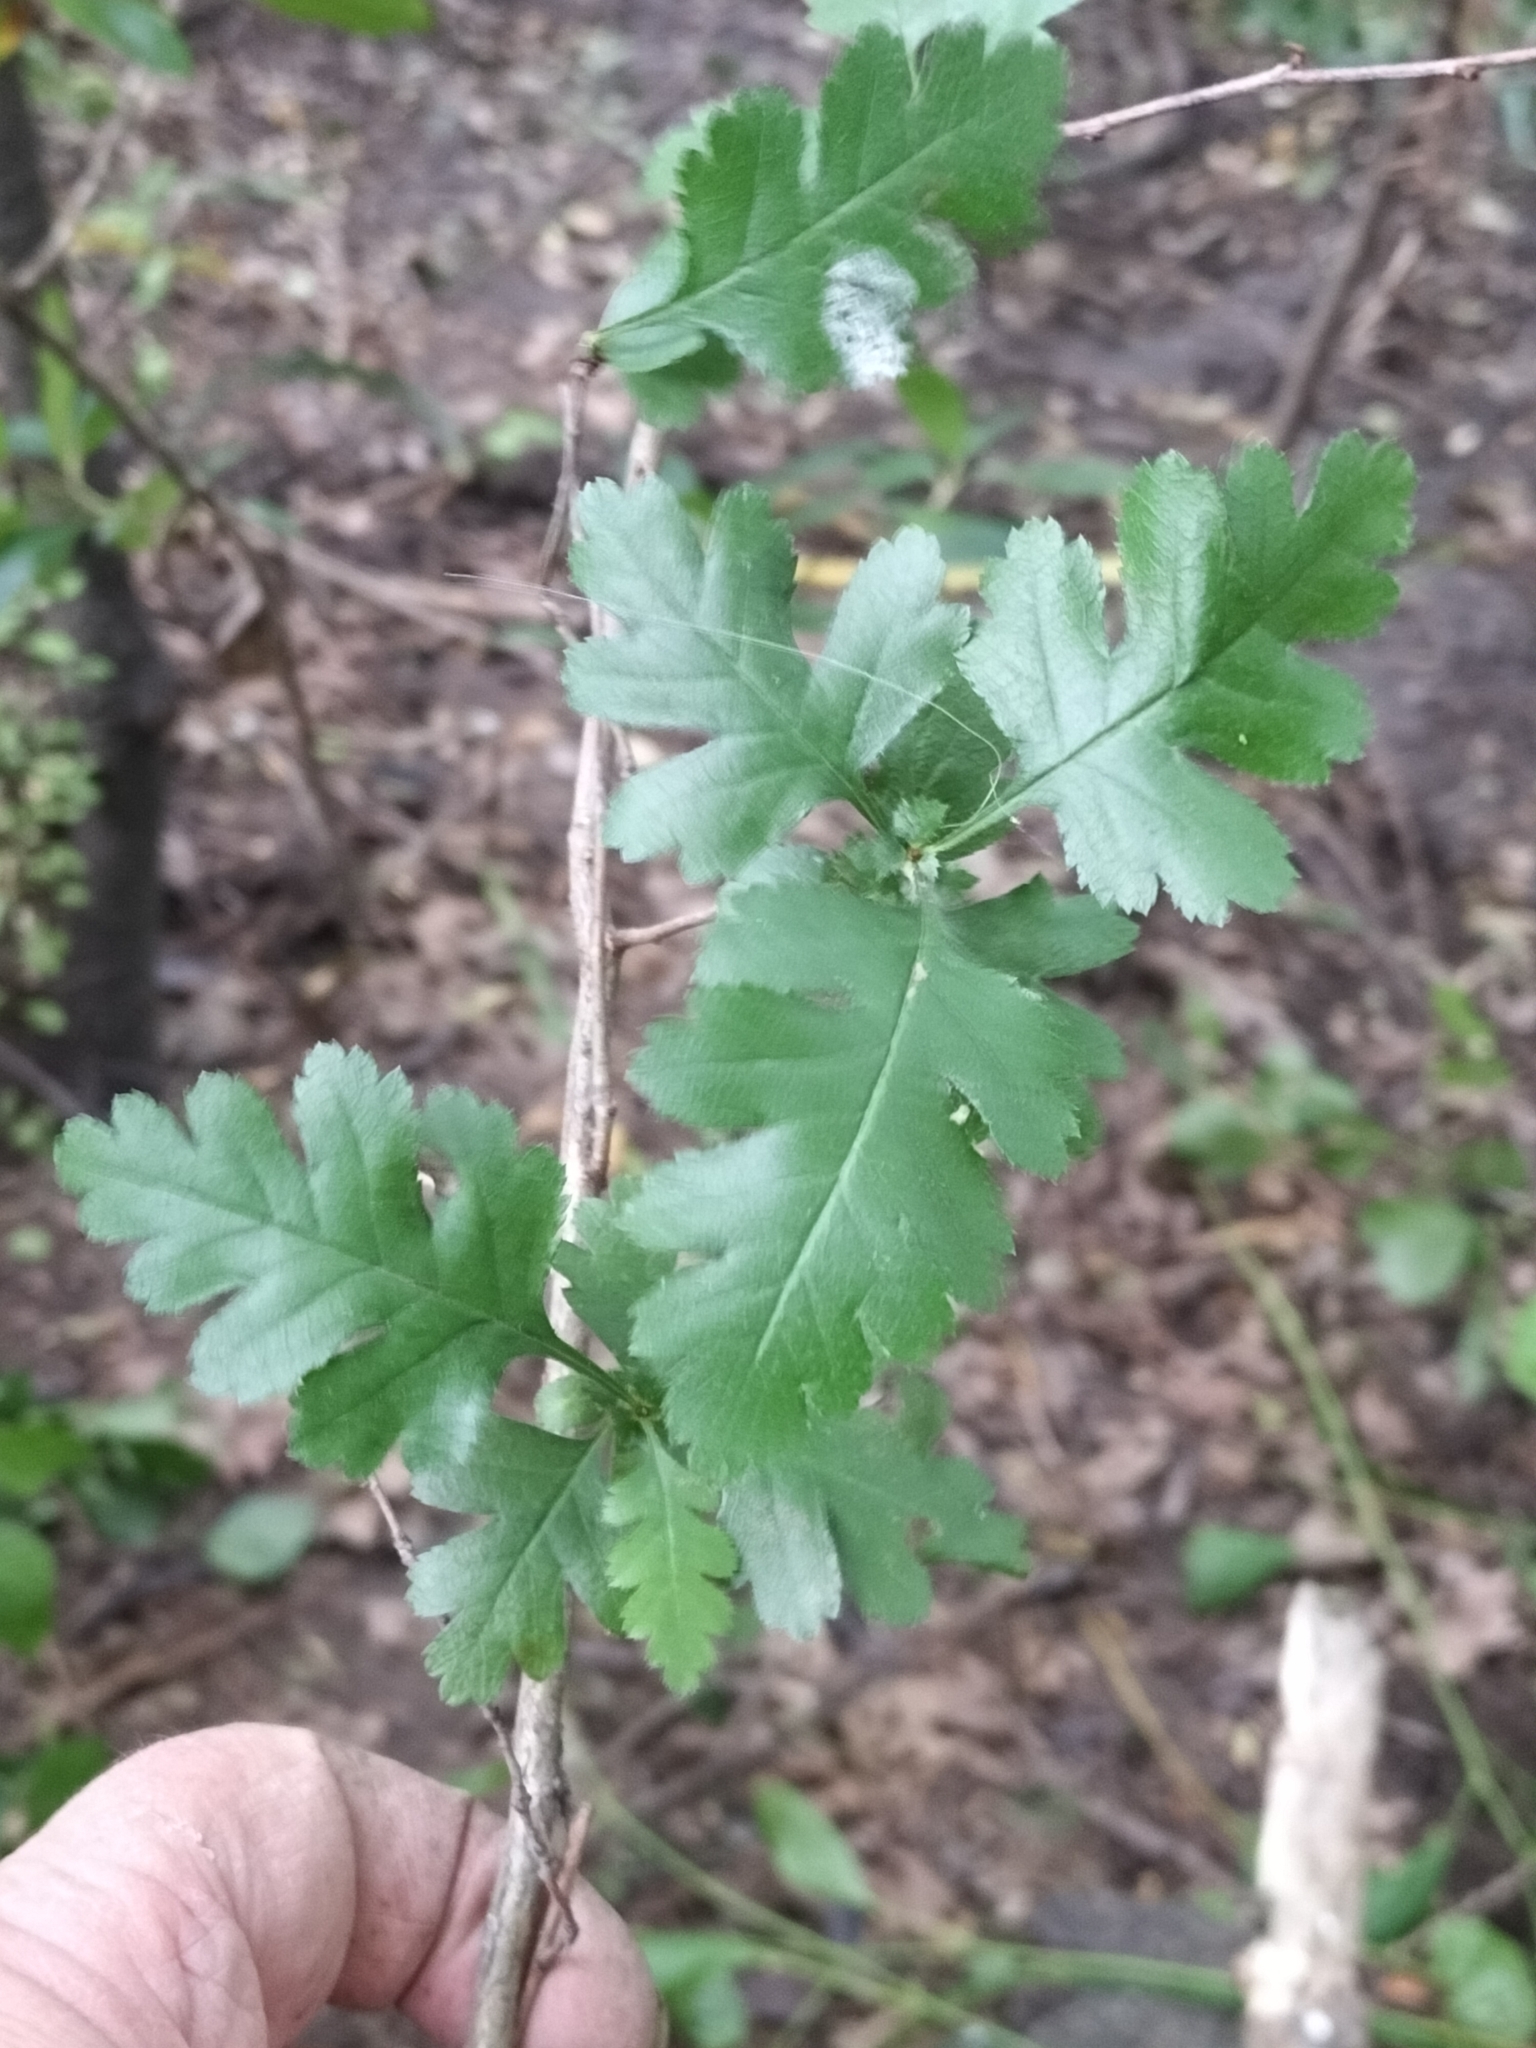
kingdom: Plantae
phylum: Tracheophyta
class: Magnoliopsida
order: Rosales
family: Rosaceae
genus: Crataegus
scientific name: Crataegus monogyna
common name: Hawthorn
